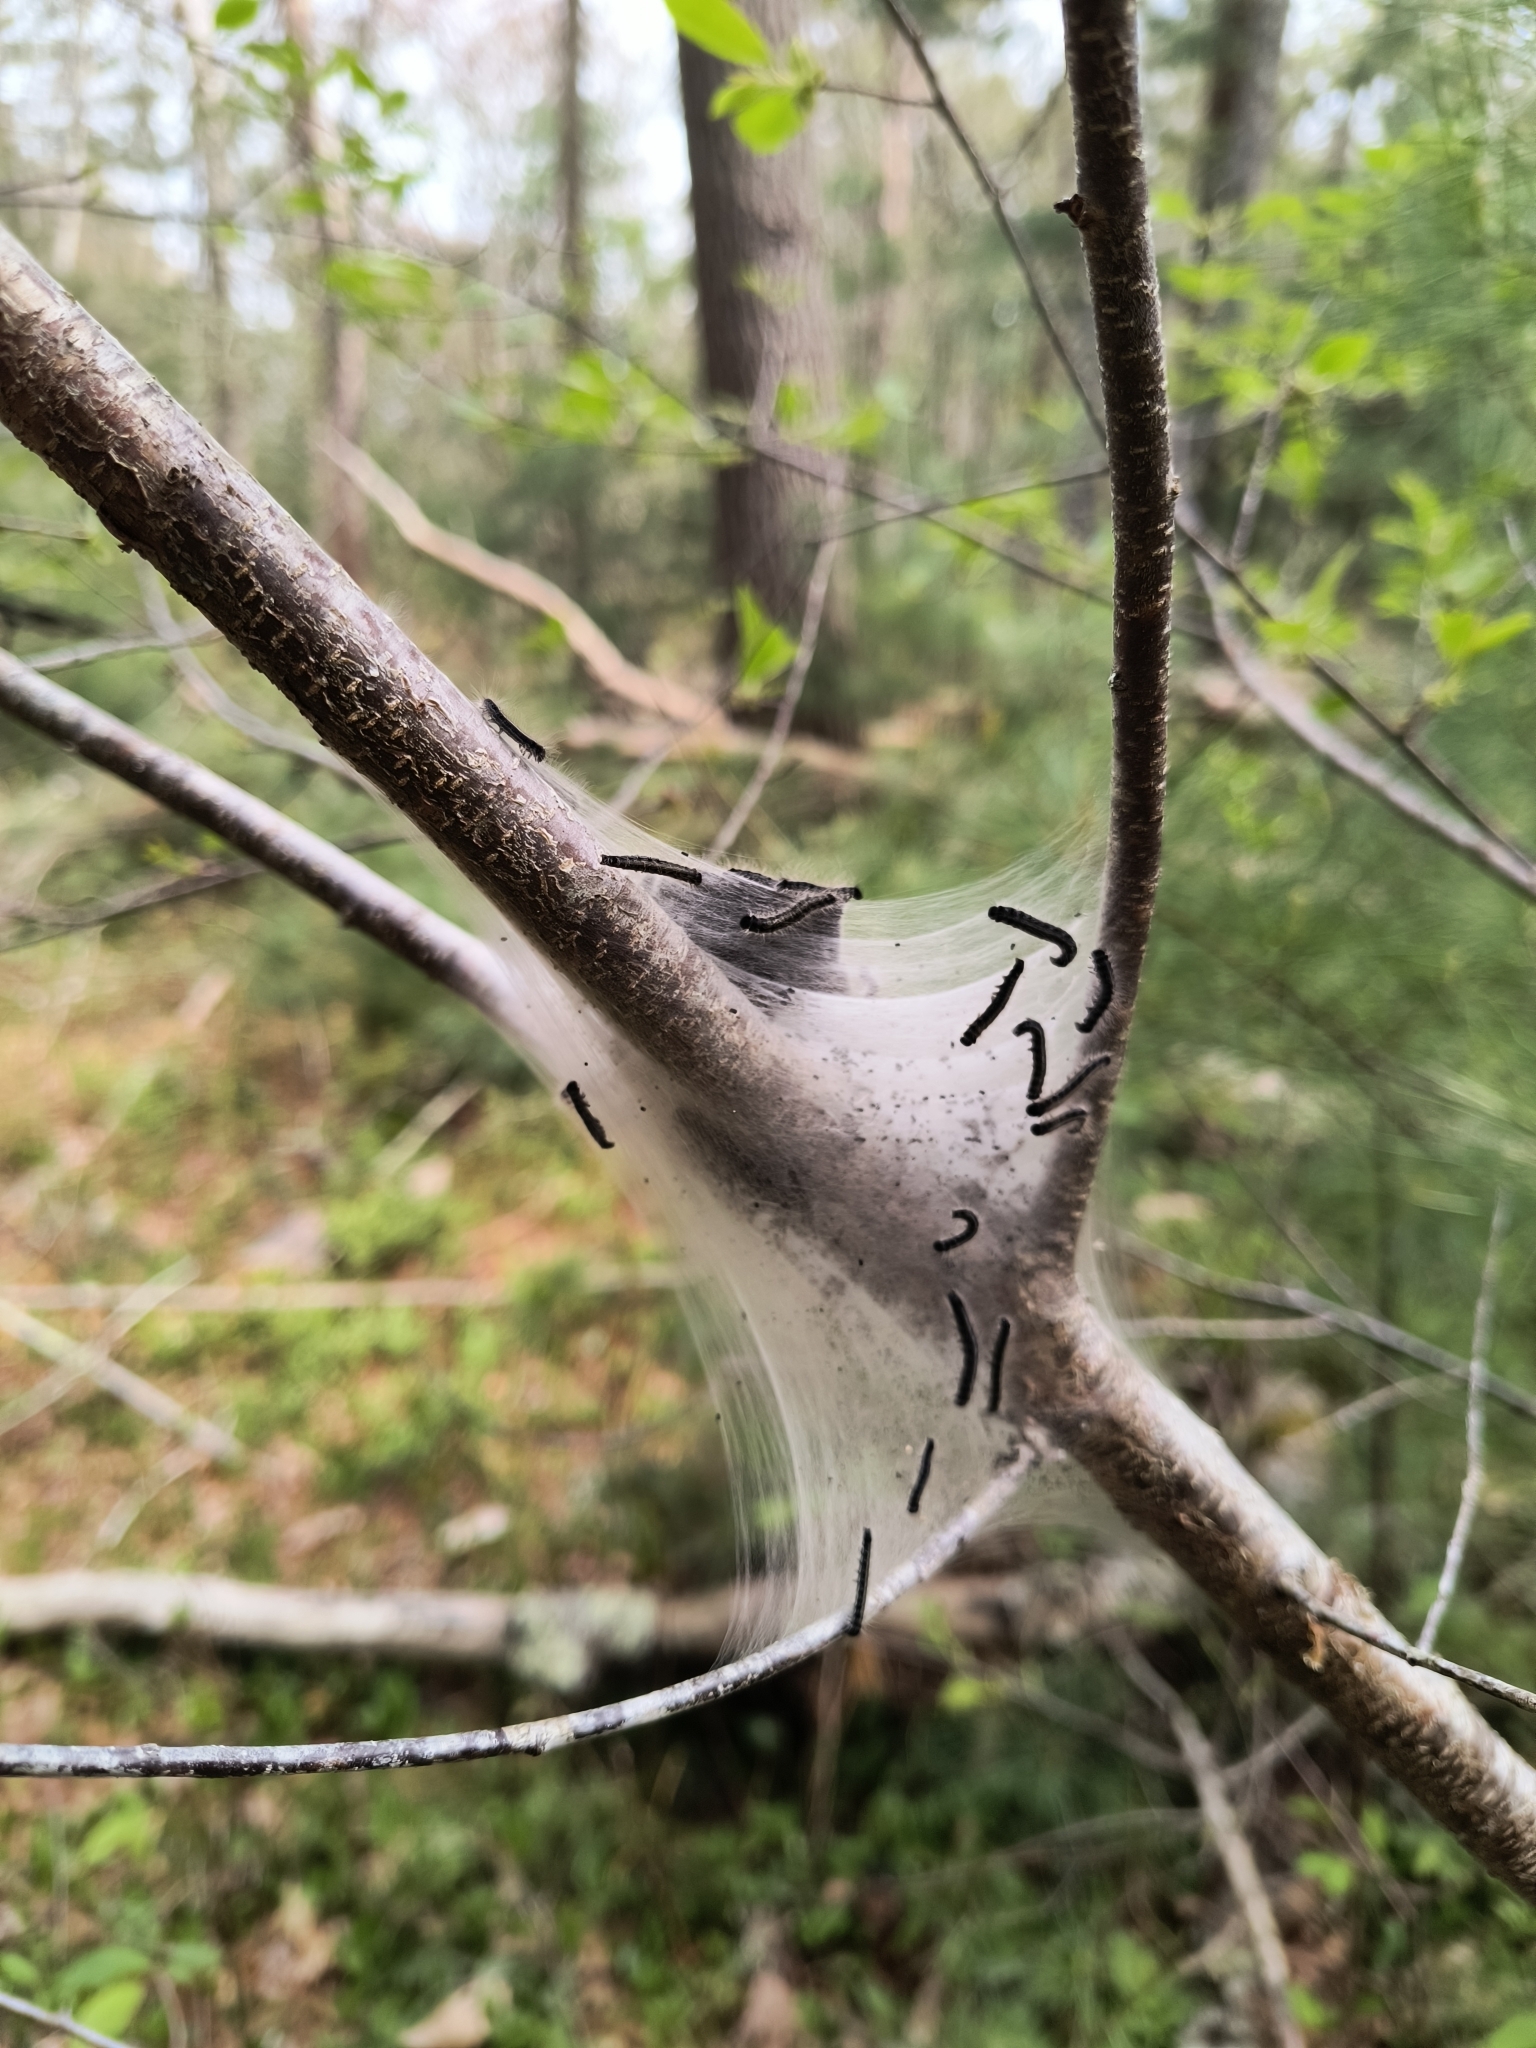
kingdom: Animalia
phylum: Arthropoda
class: Insecta
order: Lepidoptera
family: Lasiocampidae
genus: Malacosoma
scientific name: Malacosoma americana
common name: Eastern tent caterpillar moth
